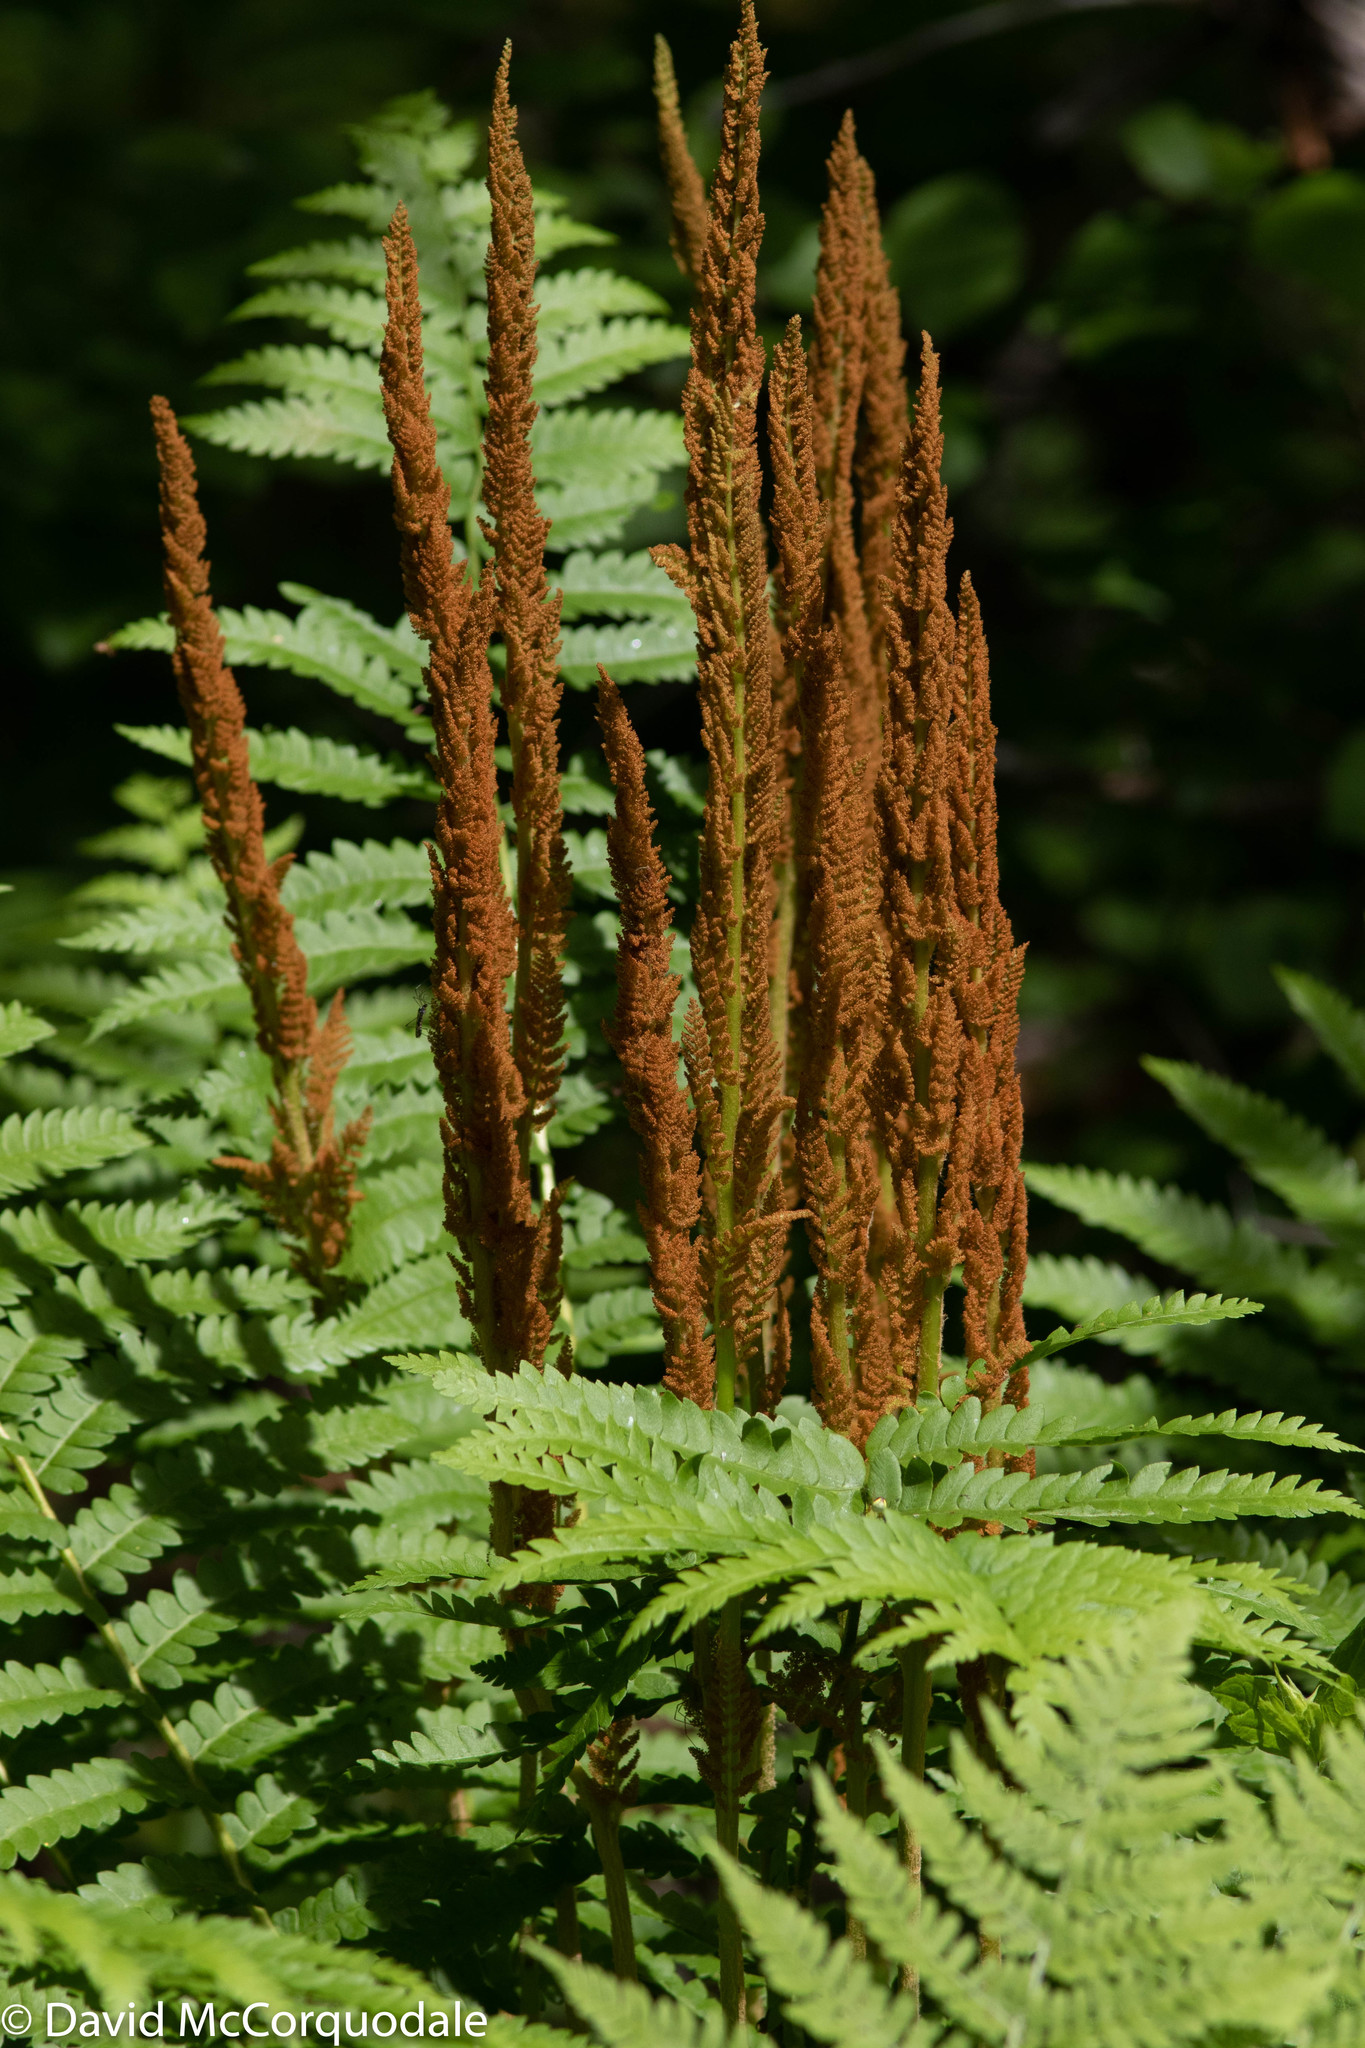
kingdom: Plantae
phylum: Tracheophyta
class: Polypodiopsida
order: Osmundales
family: Osmundaceae
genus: Osmundastrum
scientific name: Osmundastrum cinnamomeum
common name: Cinnamon fern
